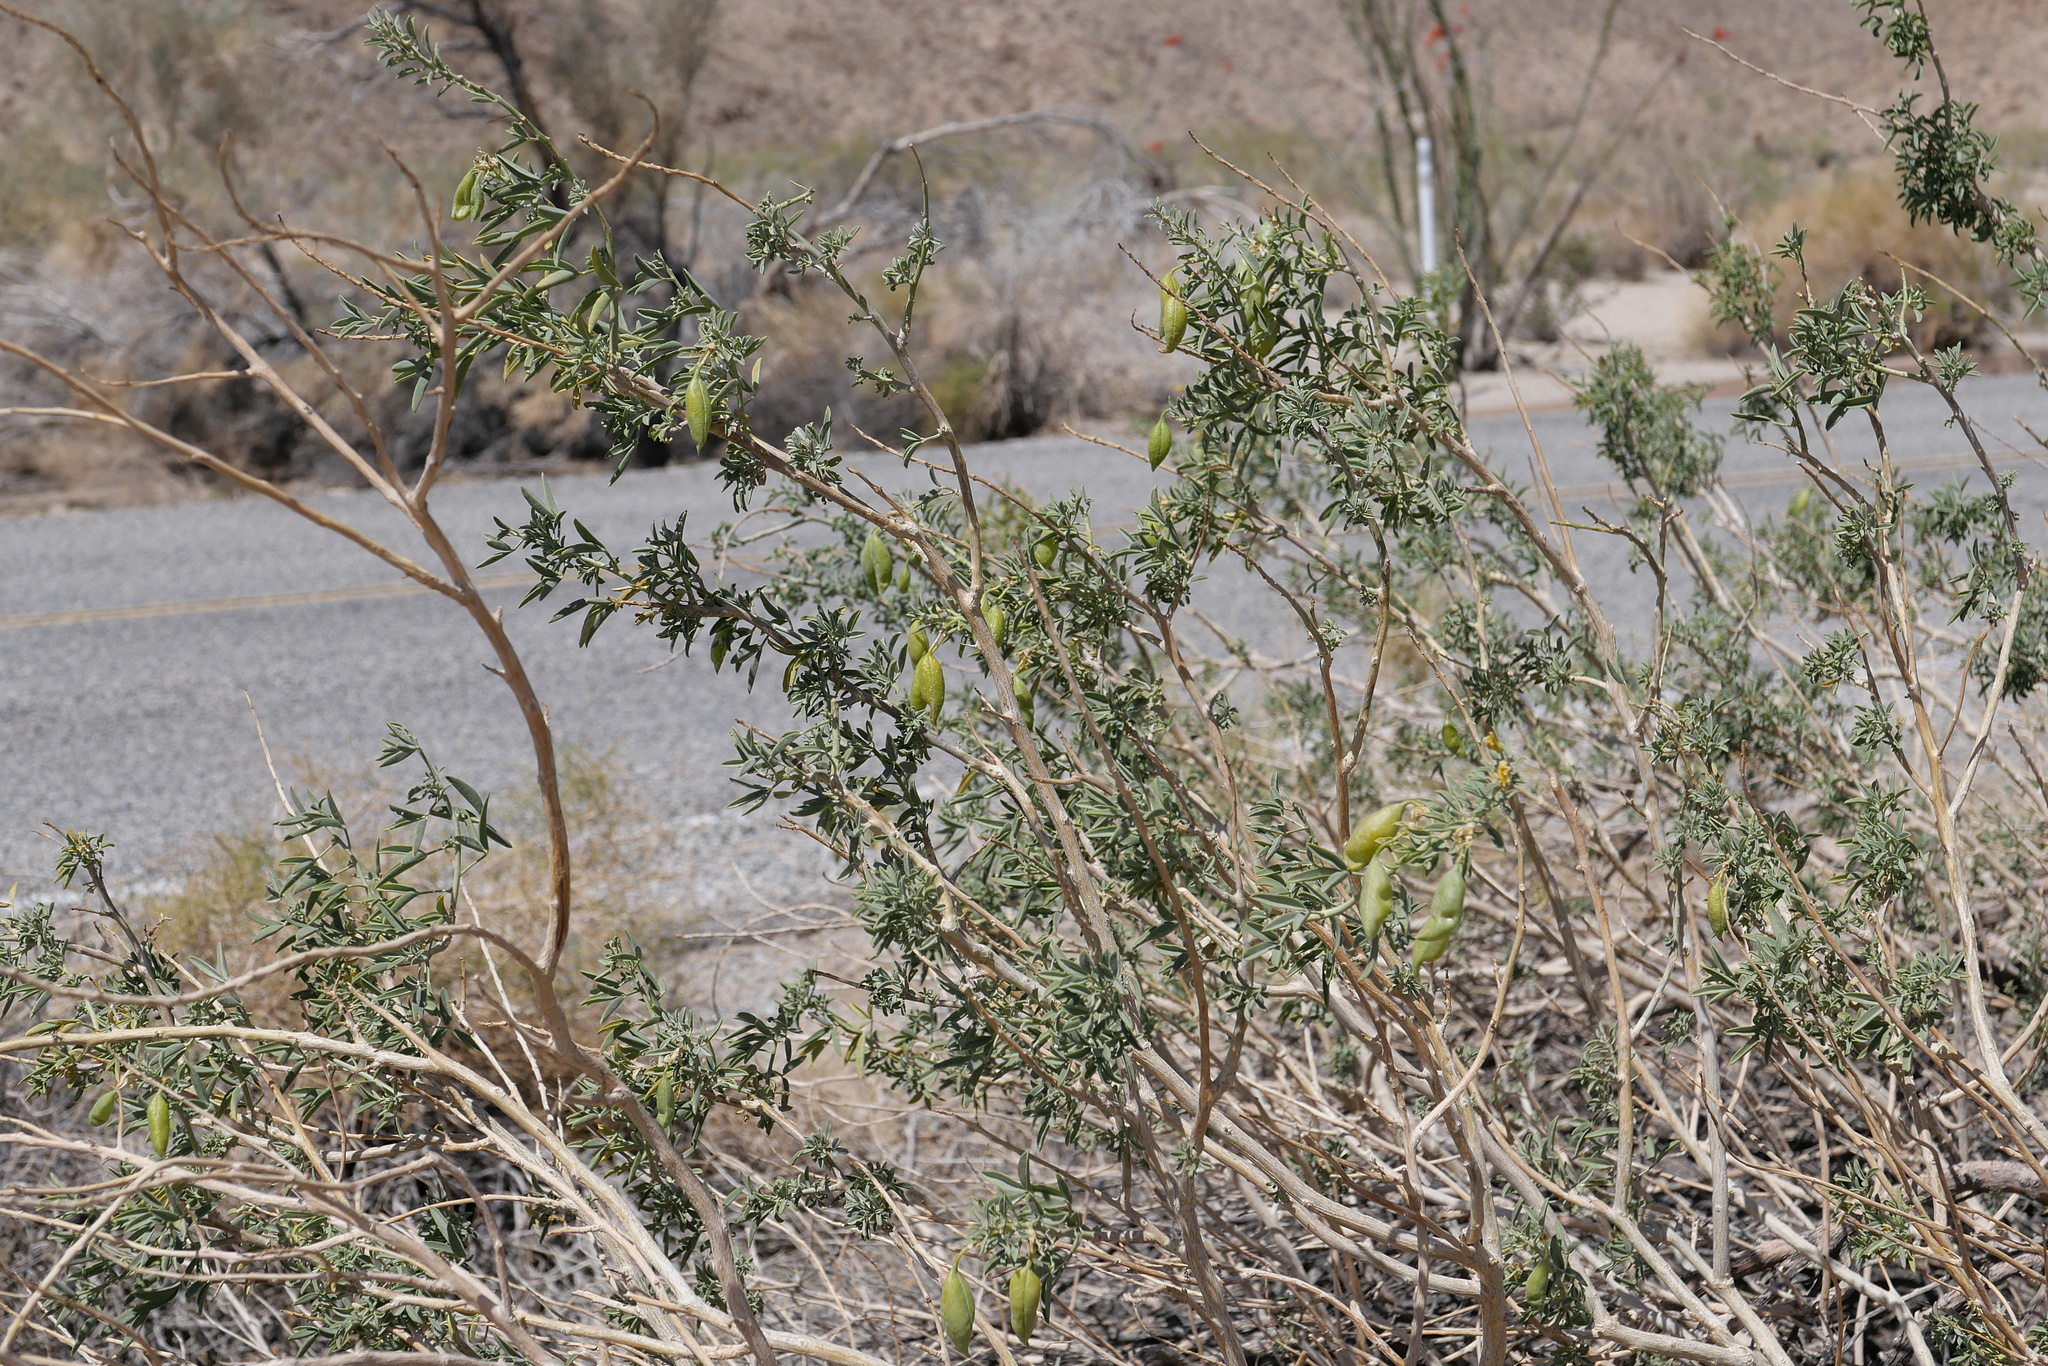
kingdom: Plantae
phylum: Tracheophyta
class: Magnoliopsida
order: Brassicales
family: Cleomaceae
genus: Cleomella
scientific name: Cleomella arborea
